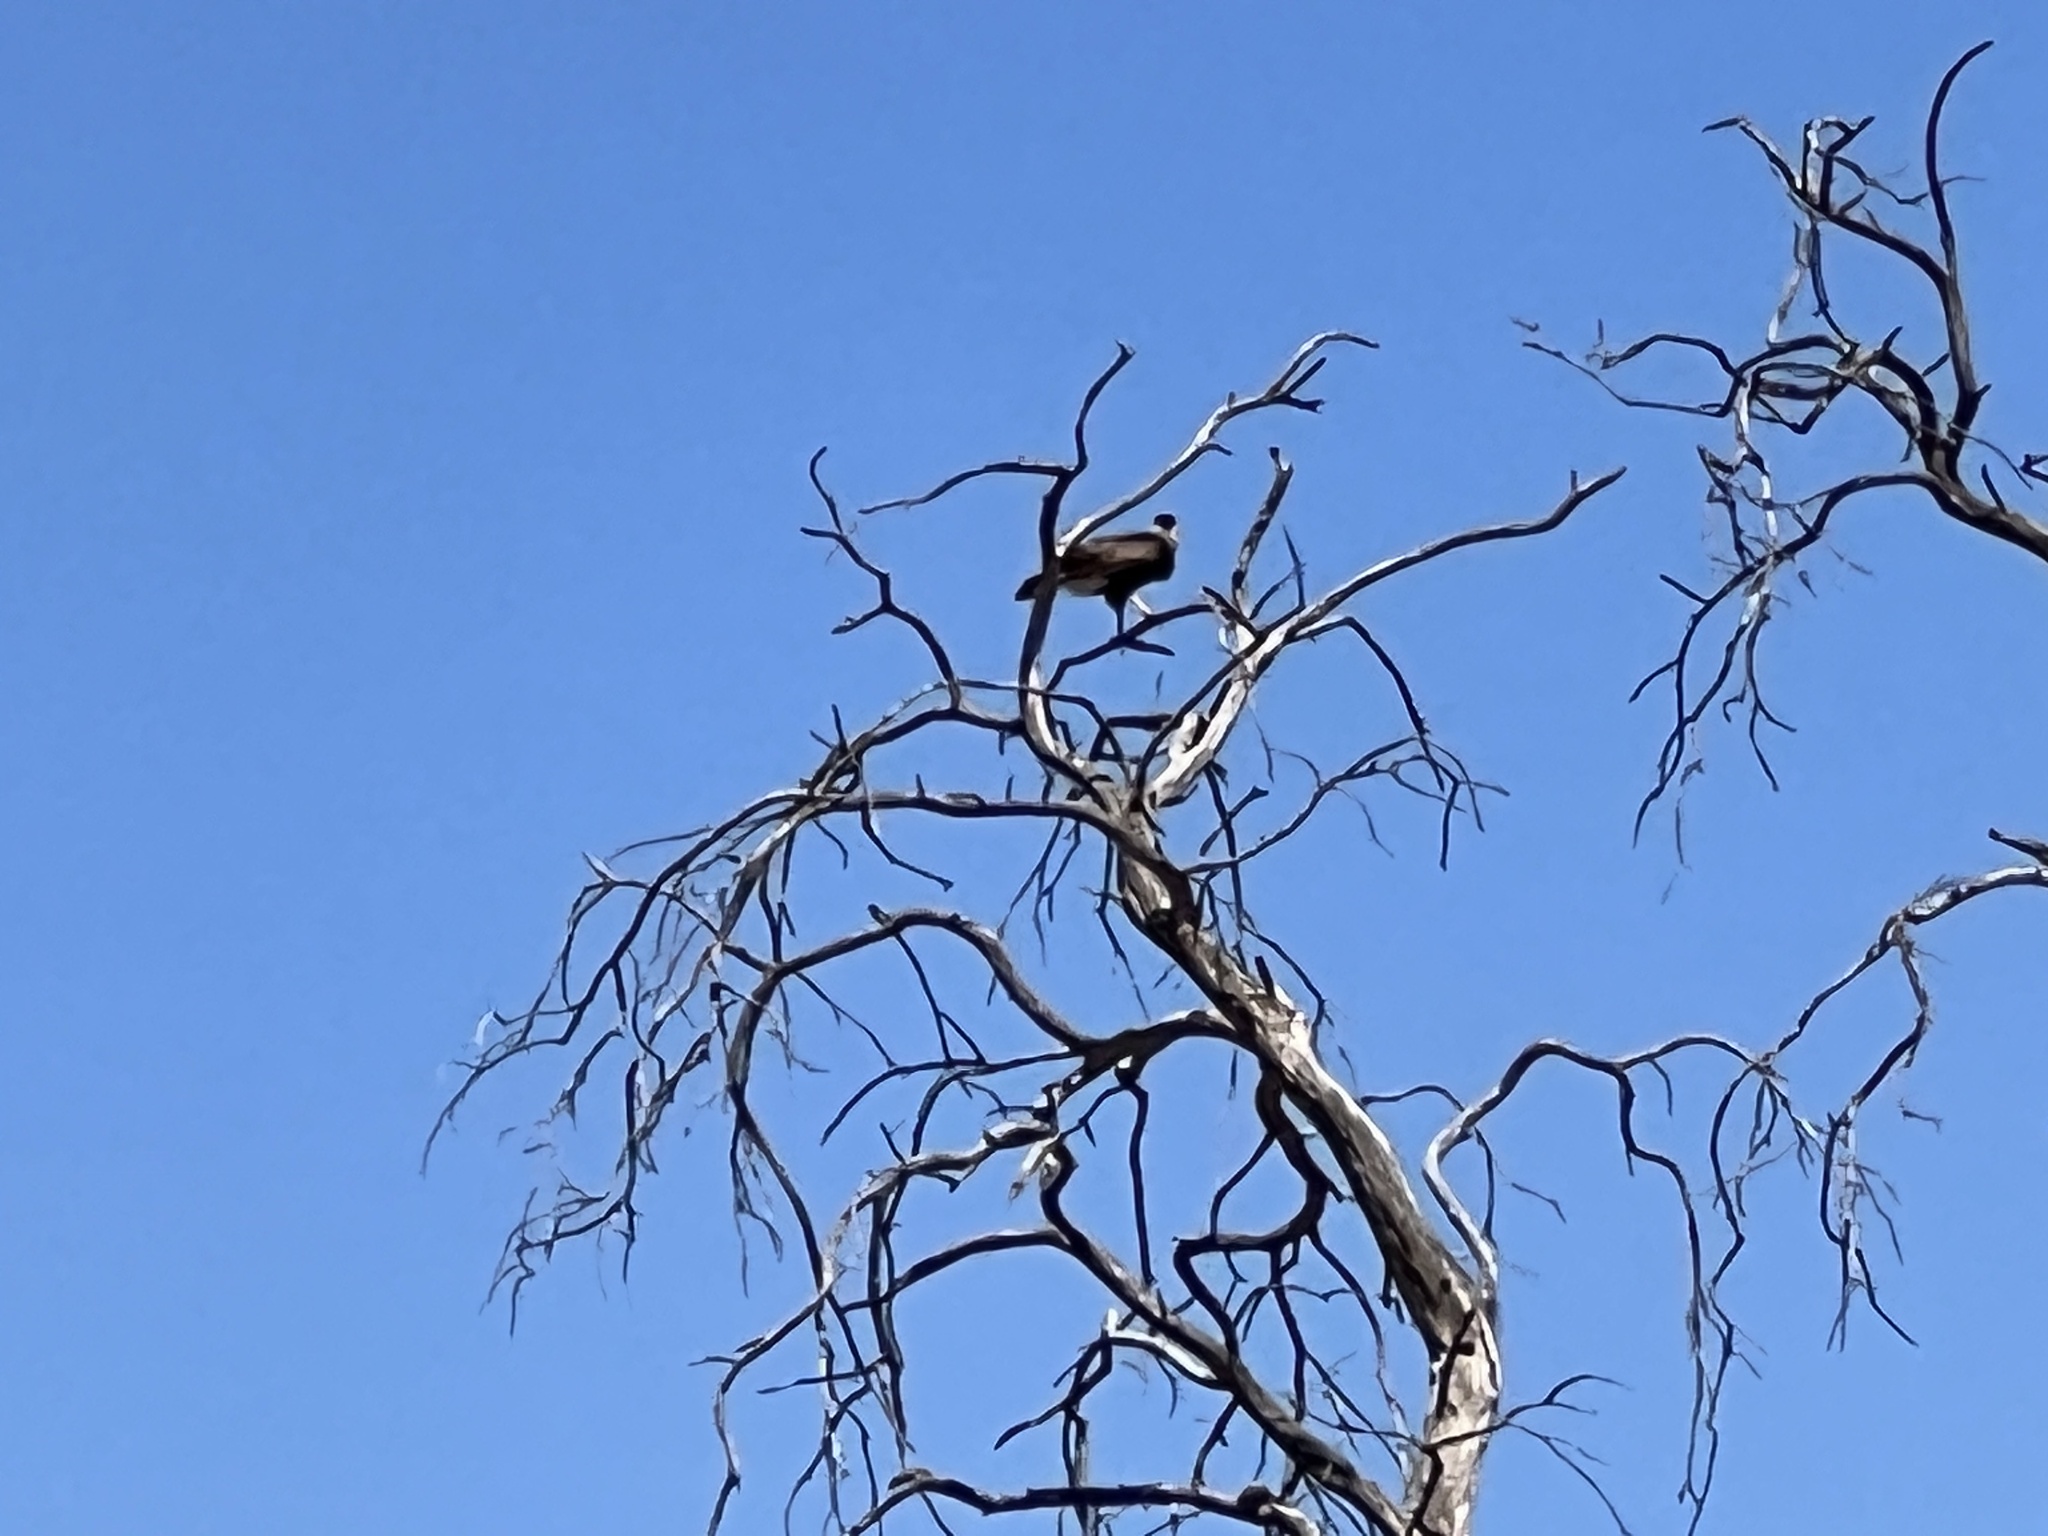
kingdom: Animalia
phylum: Chordata
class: Aves
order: Falconiformes
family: Falconidae
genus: Caracara
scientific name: Caracara plancus
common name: Southern caracara
